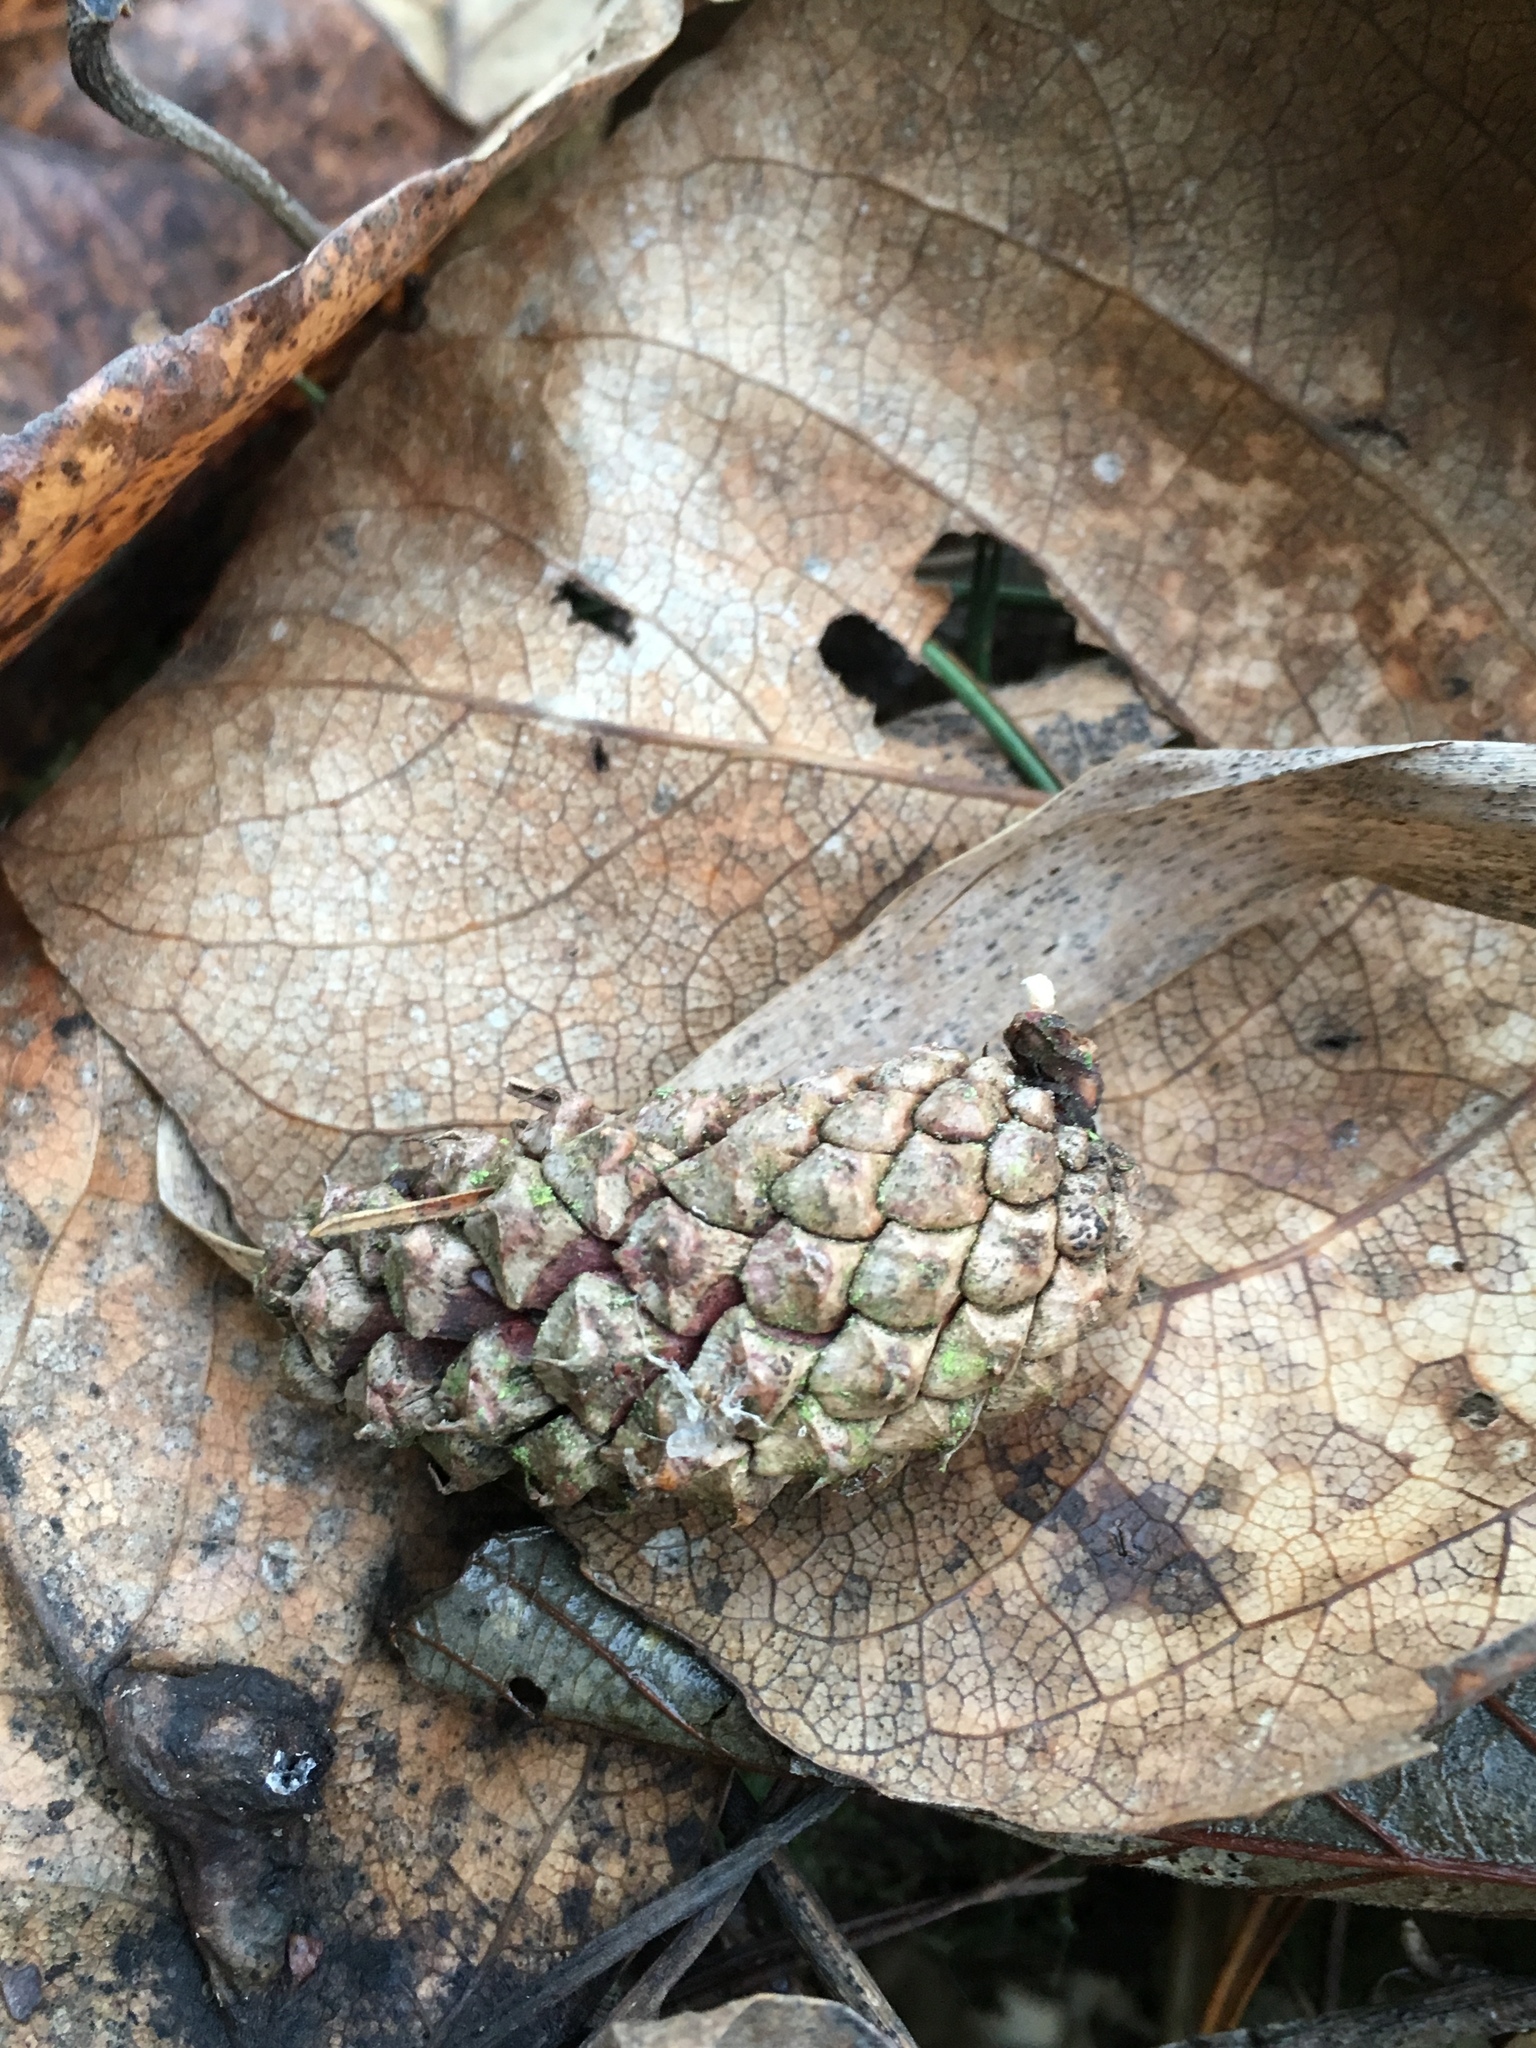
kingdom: Plantae
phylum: Tracheophyta
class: Pinopsida
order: Pinales
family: Pinaceae
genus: Pinus
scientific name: Pinus contorta
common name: Lodgepole pine
